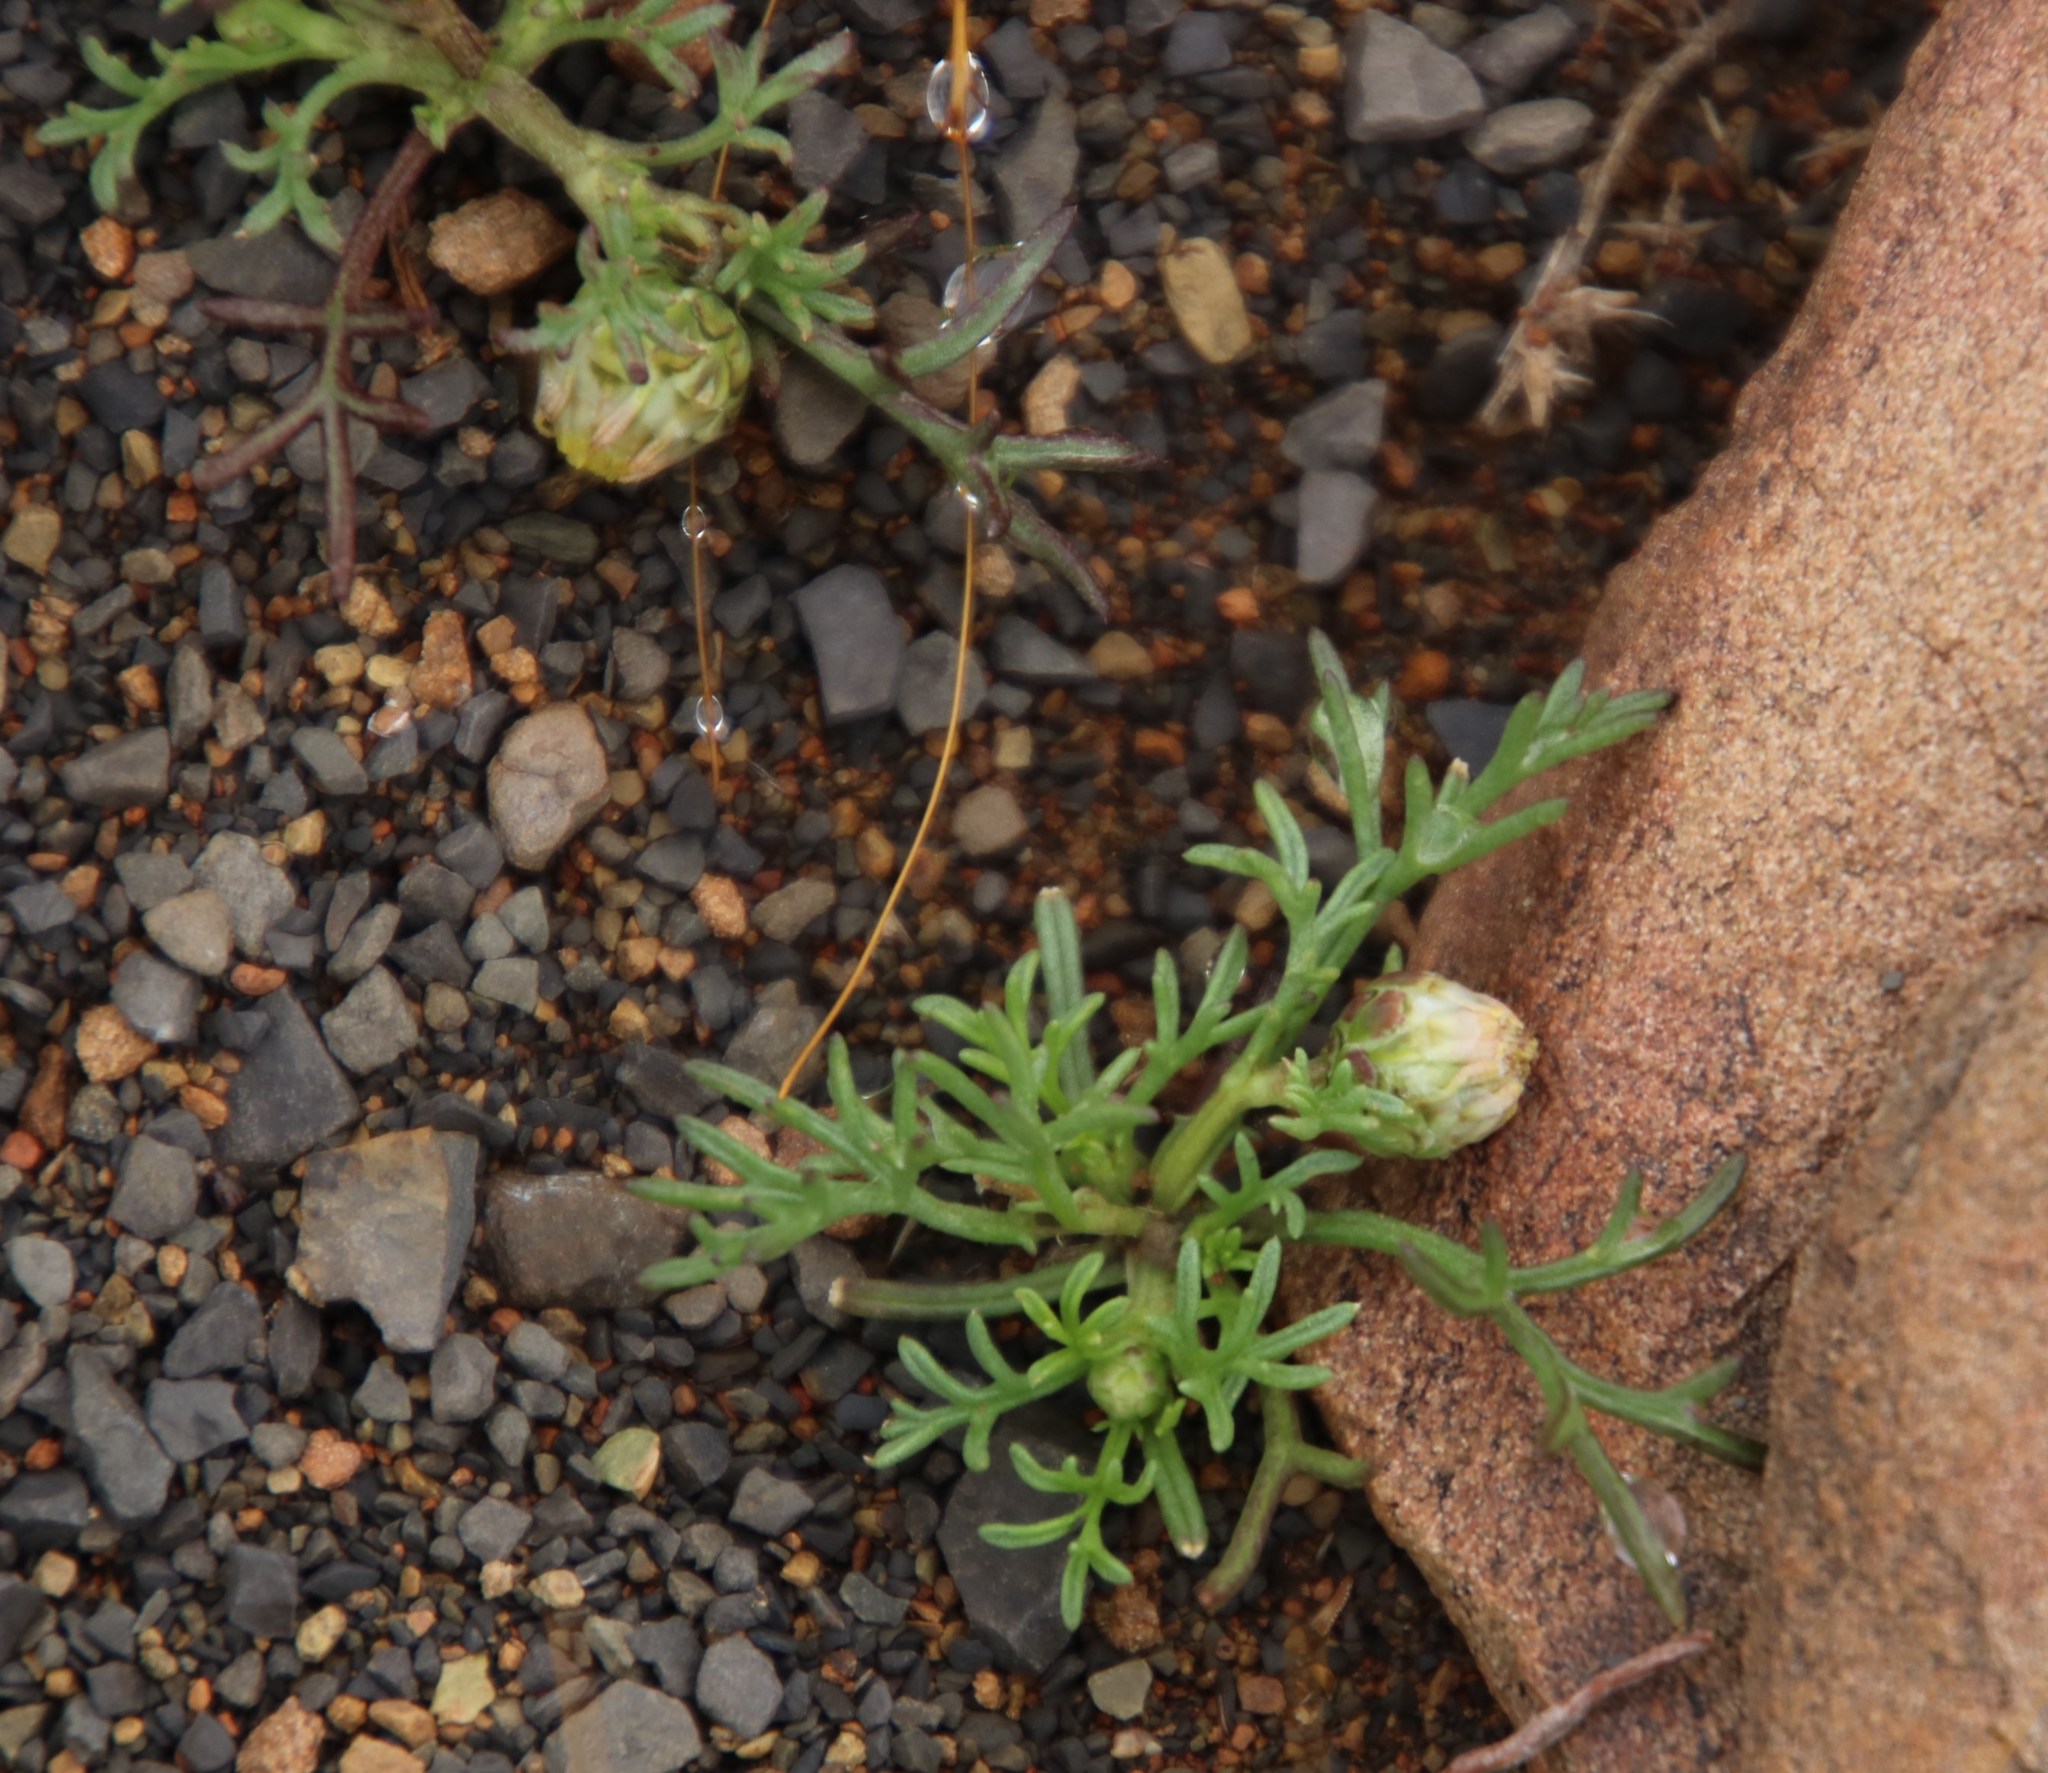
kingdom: Plantae
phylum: Tracheophyta
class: Magnoliopsida
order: Asterales
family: Asteraceae
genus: Ursinia
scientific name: Ursinia nana
